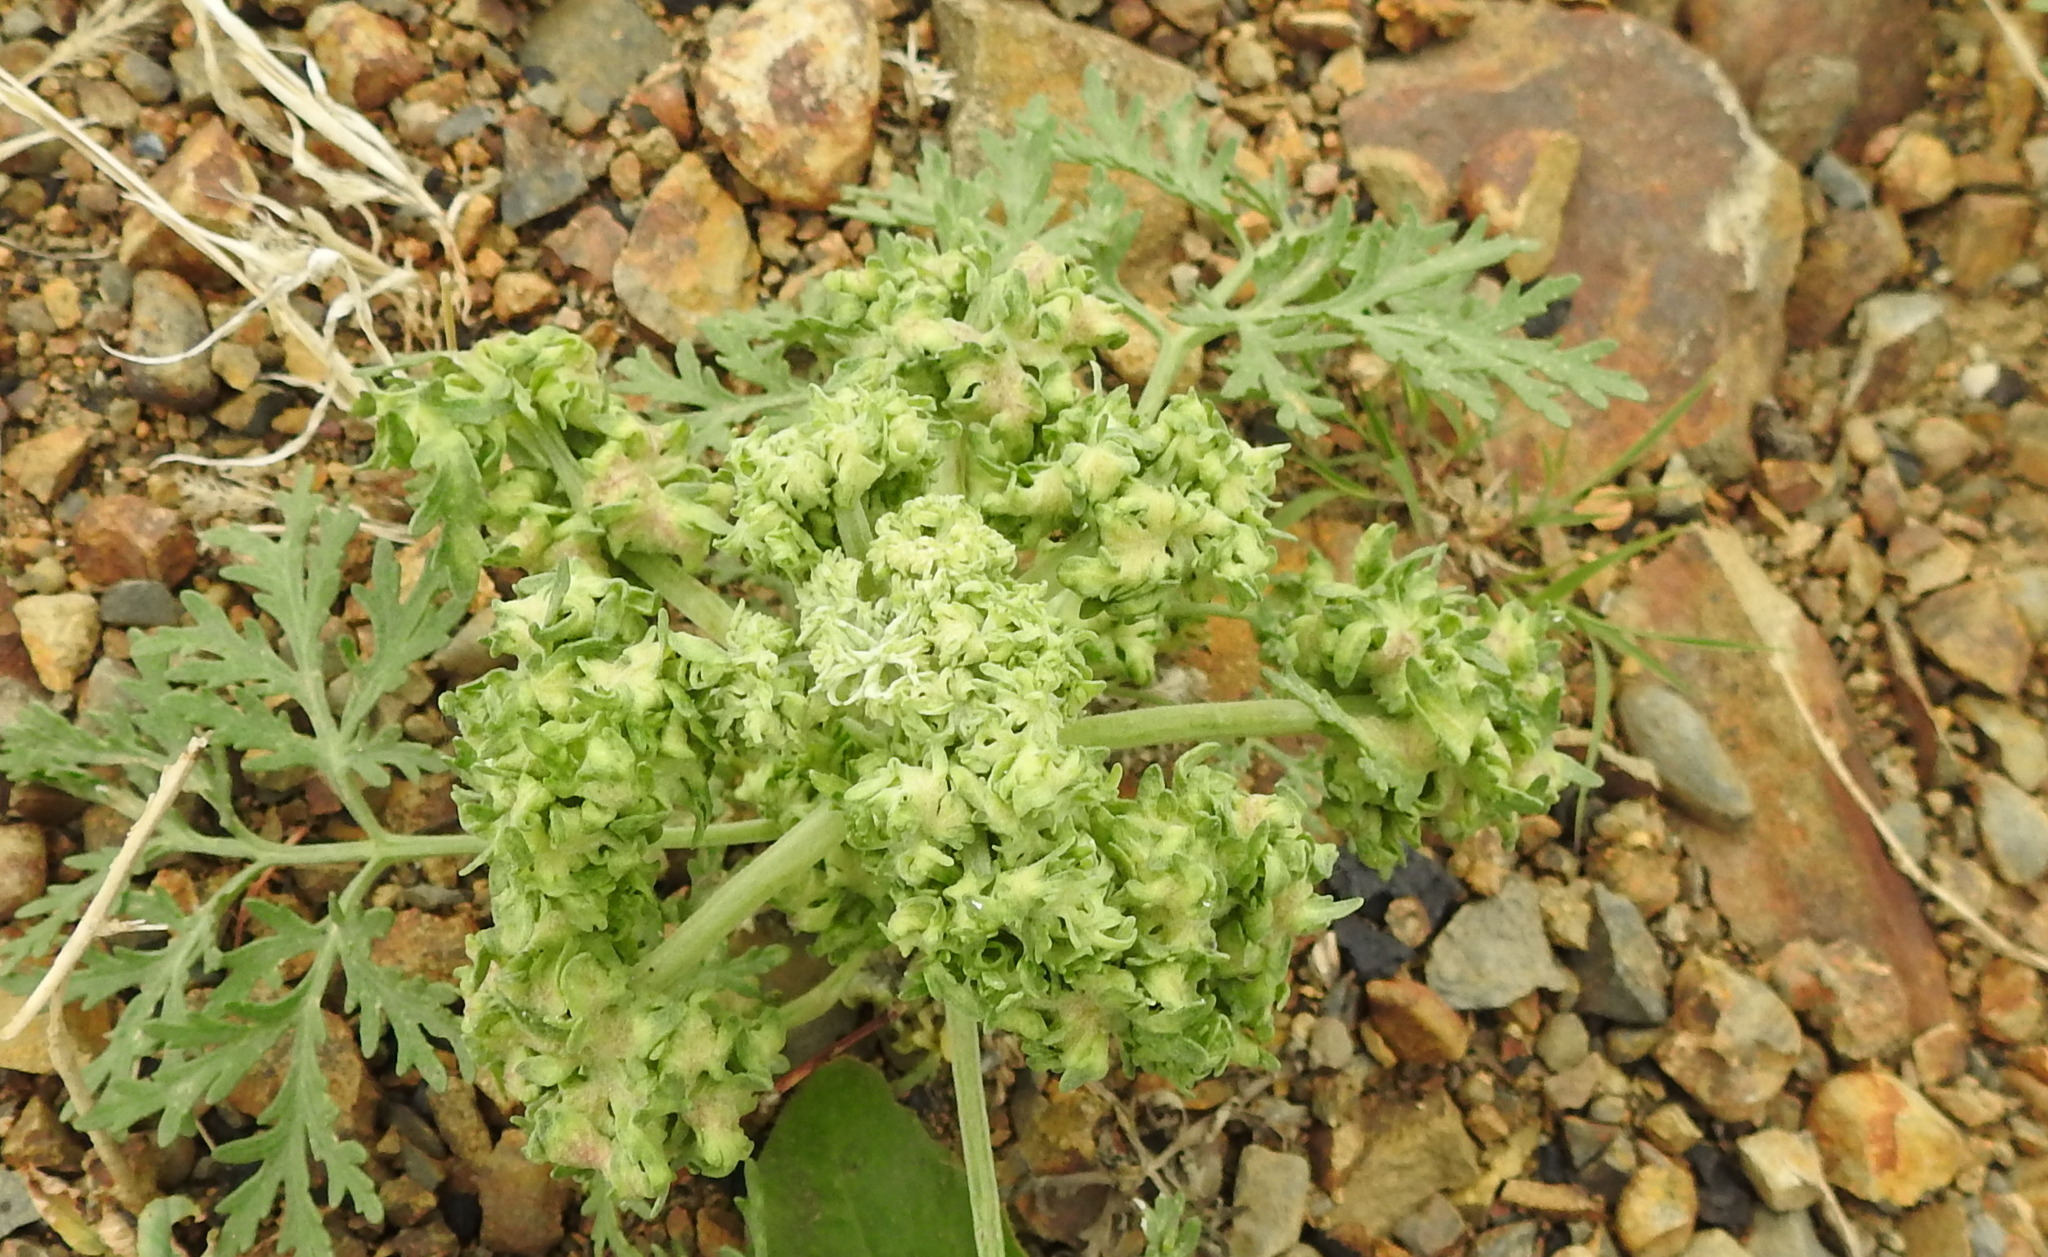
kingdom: Plantae
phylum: Tracheophyta
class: Magnoliopsida
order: Asterales
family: Asteraceae
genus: Artemisia
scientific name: Artemisia sieversiana
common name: Sieversian wormwood
